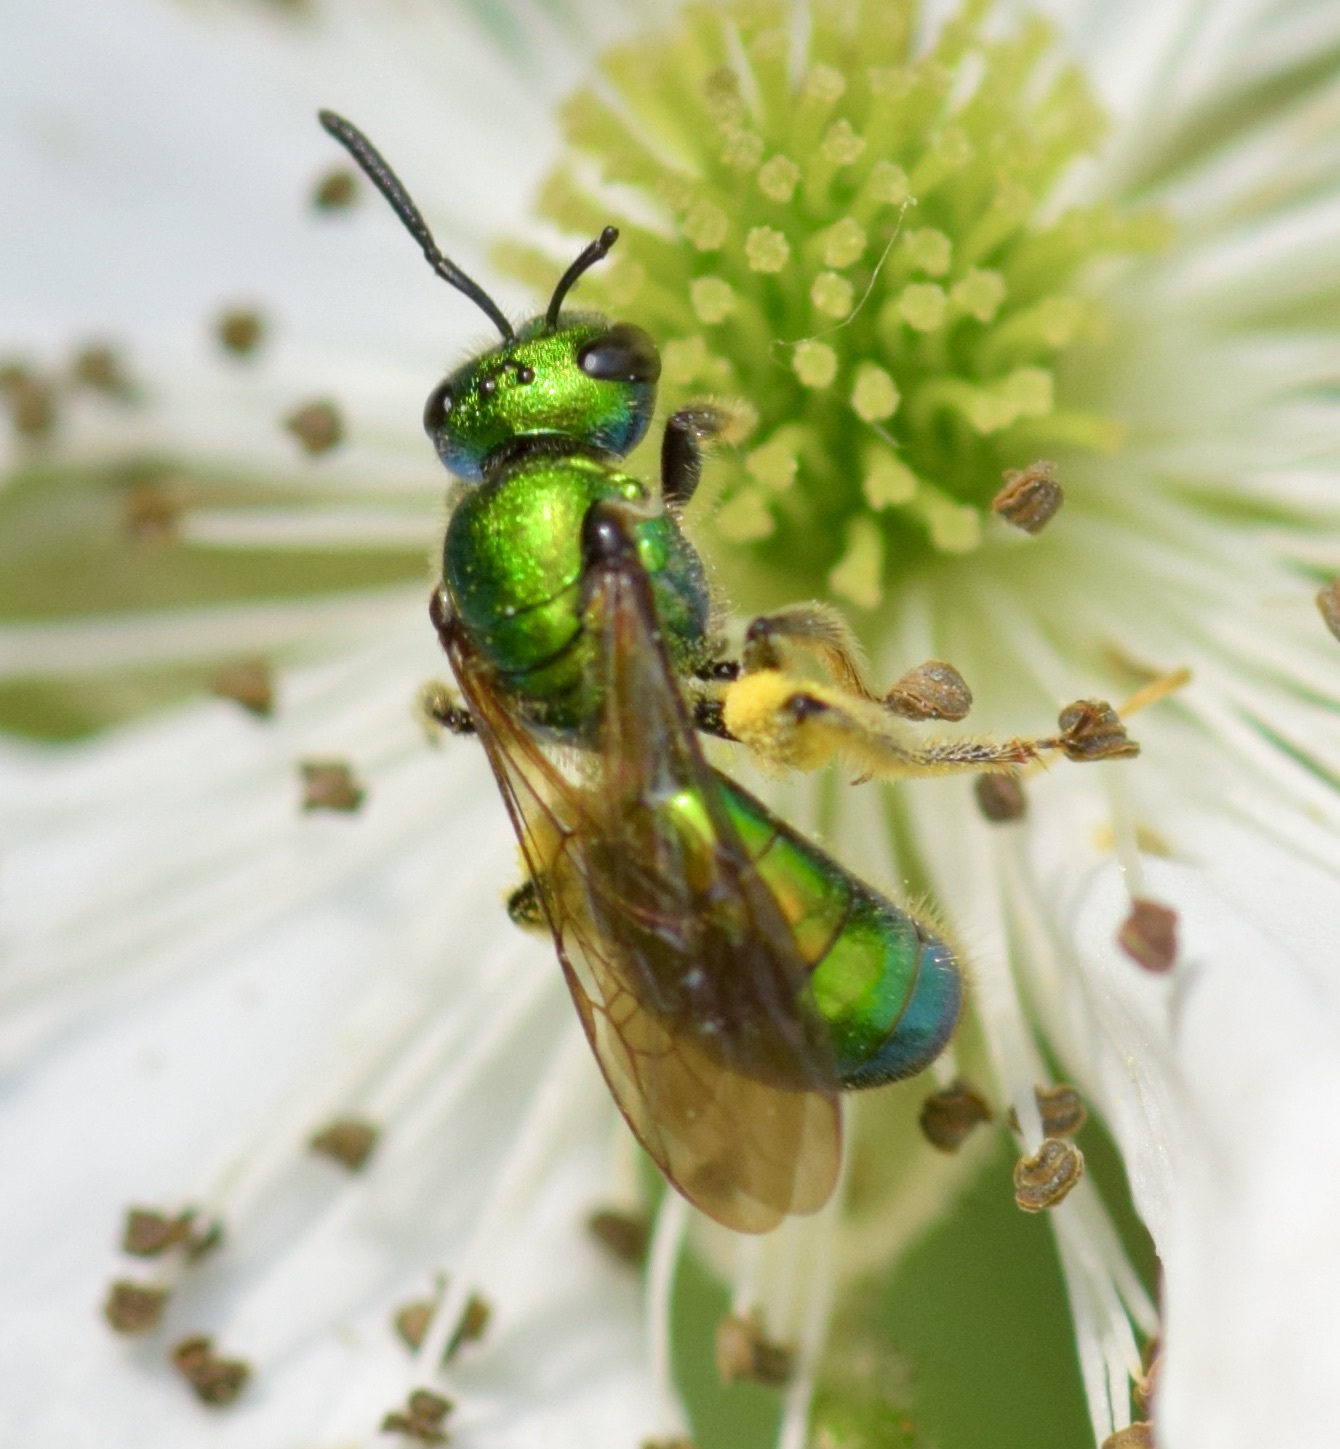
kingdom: Animalia
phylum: Arthropoda
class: Insecta
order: Hymenoptera
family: Halictidae
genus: Augochlora
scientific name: Augochlora pura
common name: Pure green sweat bee
